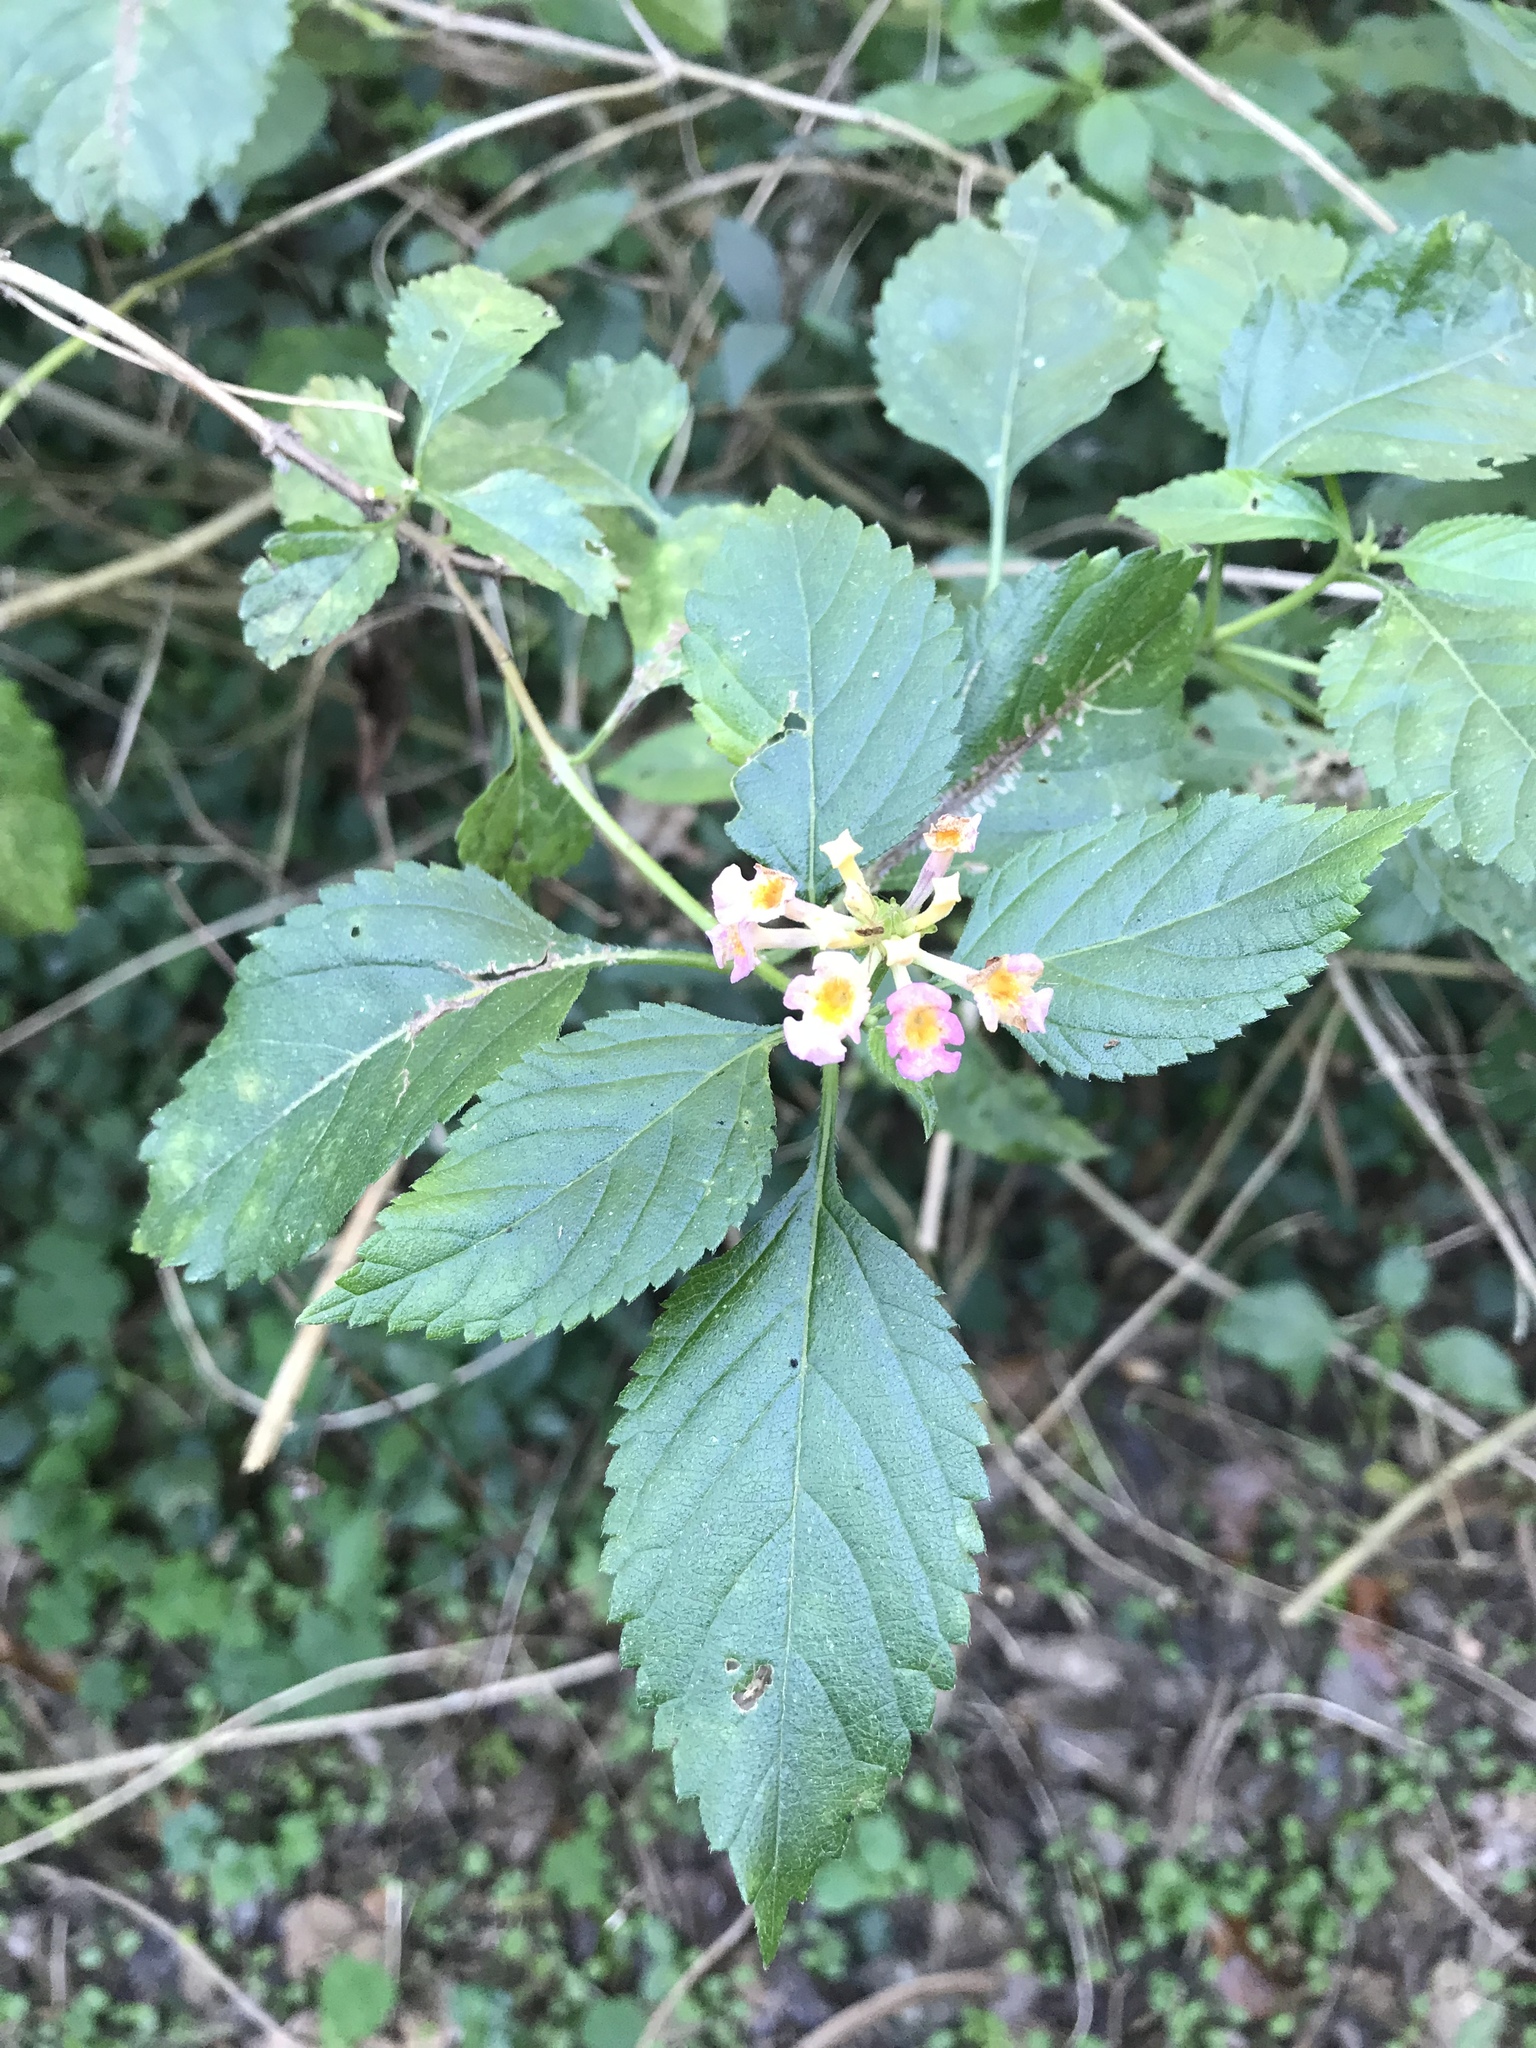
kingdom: Plantae
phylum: Tracheophyta
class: Magnoliopsida
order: Lamiales
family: Verbenaceae
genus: Lantana
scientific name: Lantana strigocamara
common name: Lantana
